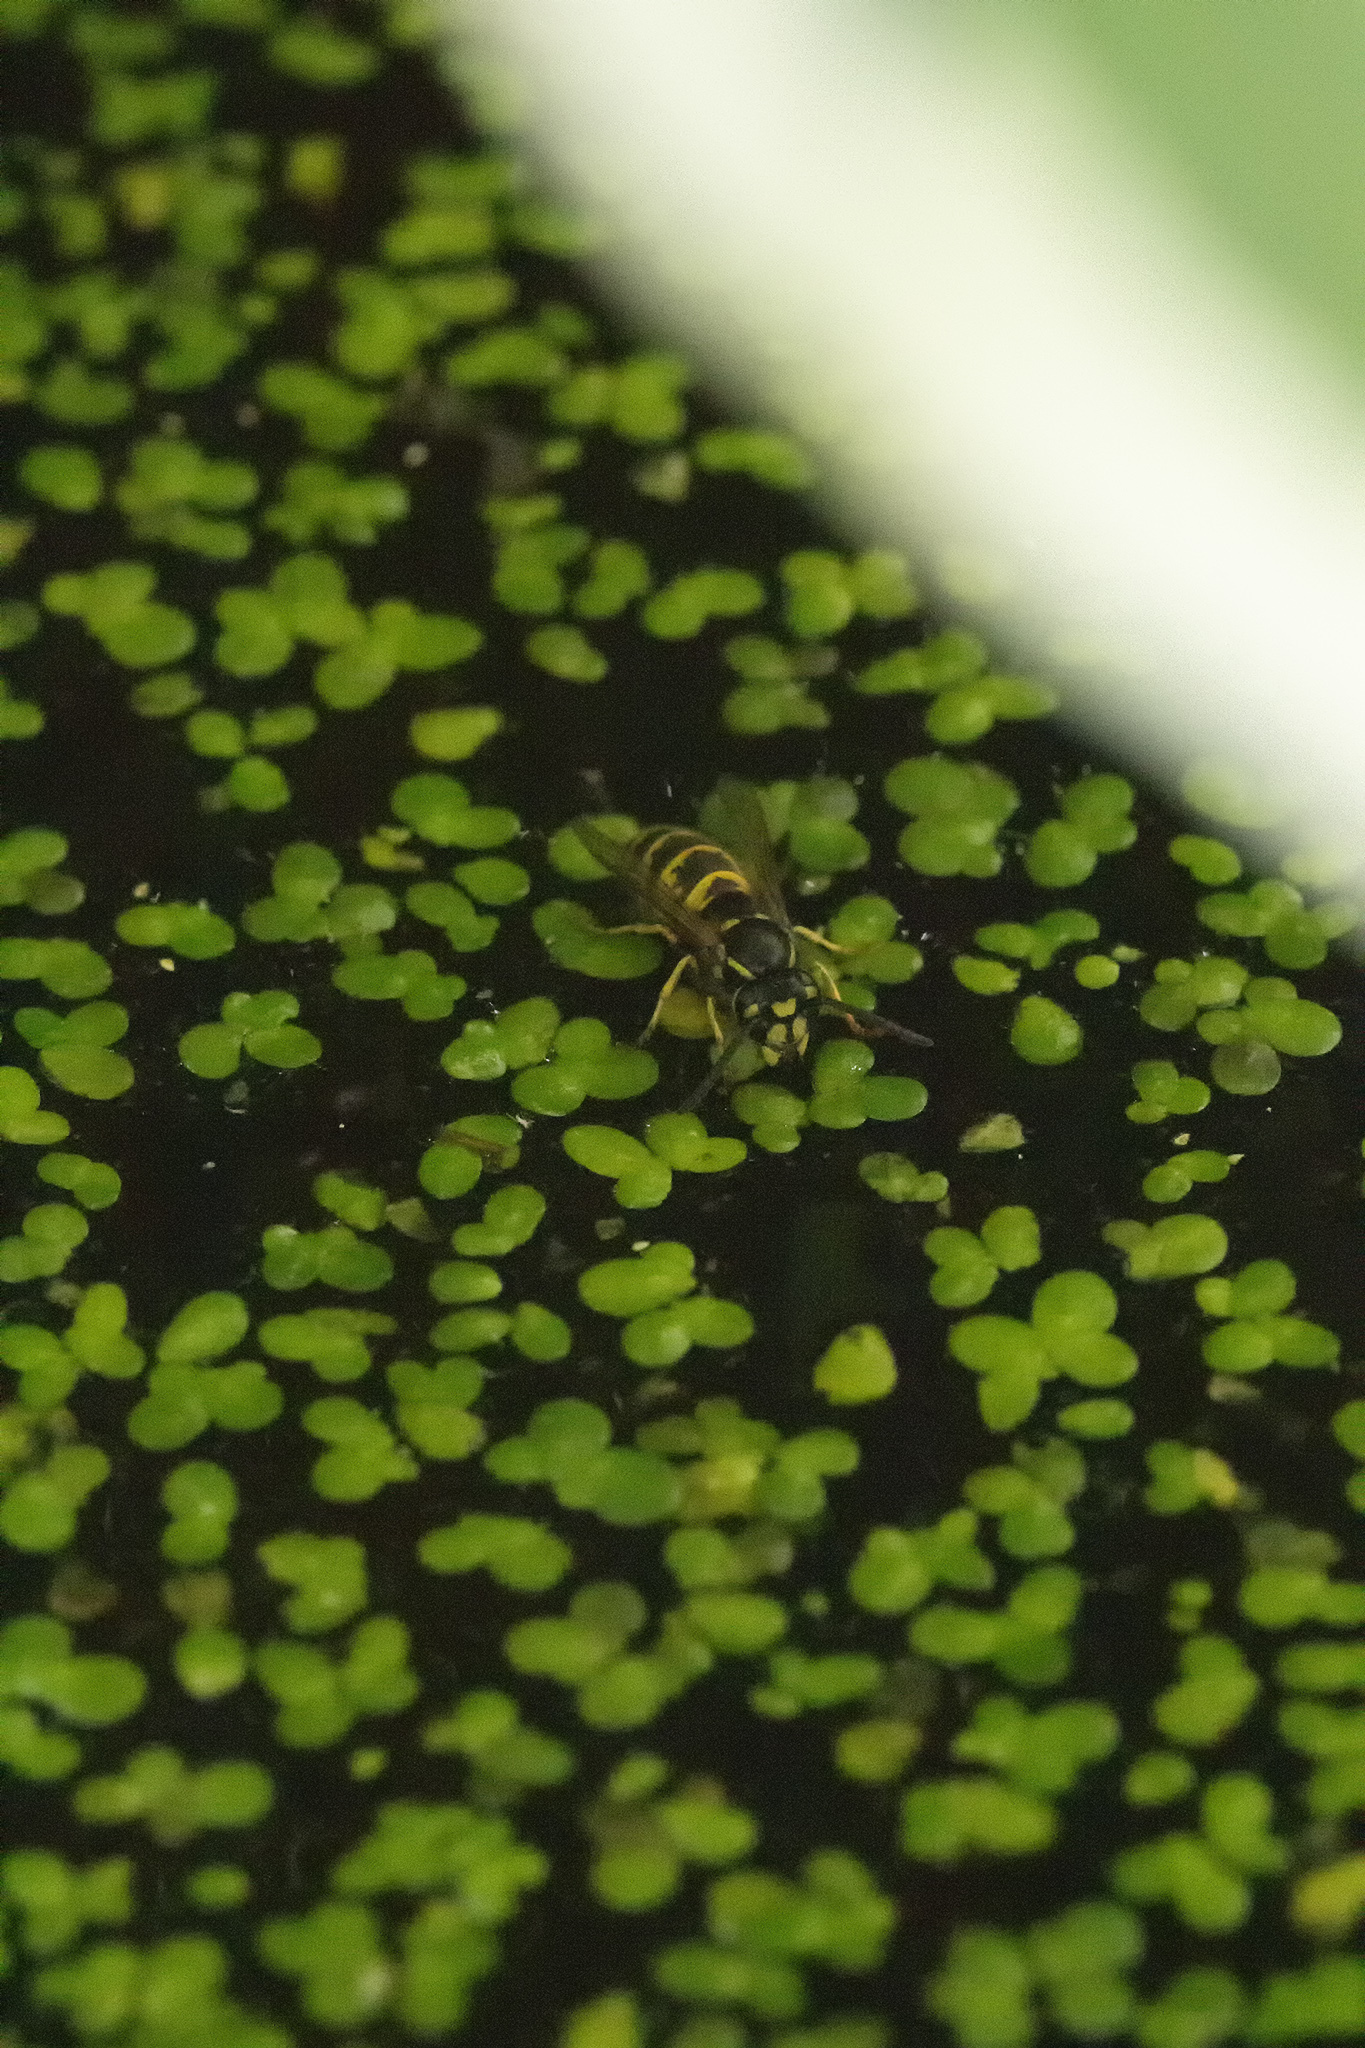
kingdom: Animalia
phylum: Arthropoda
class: Insecta
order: Hymenoptera
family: Vespidae
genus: Vespula
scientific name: Vespula vulgaris
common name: Common wasp
